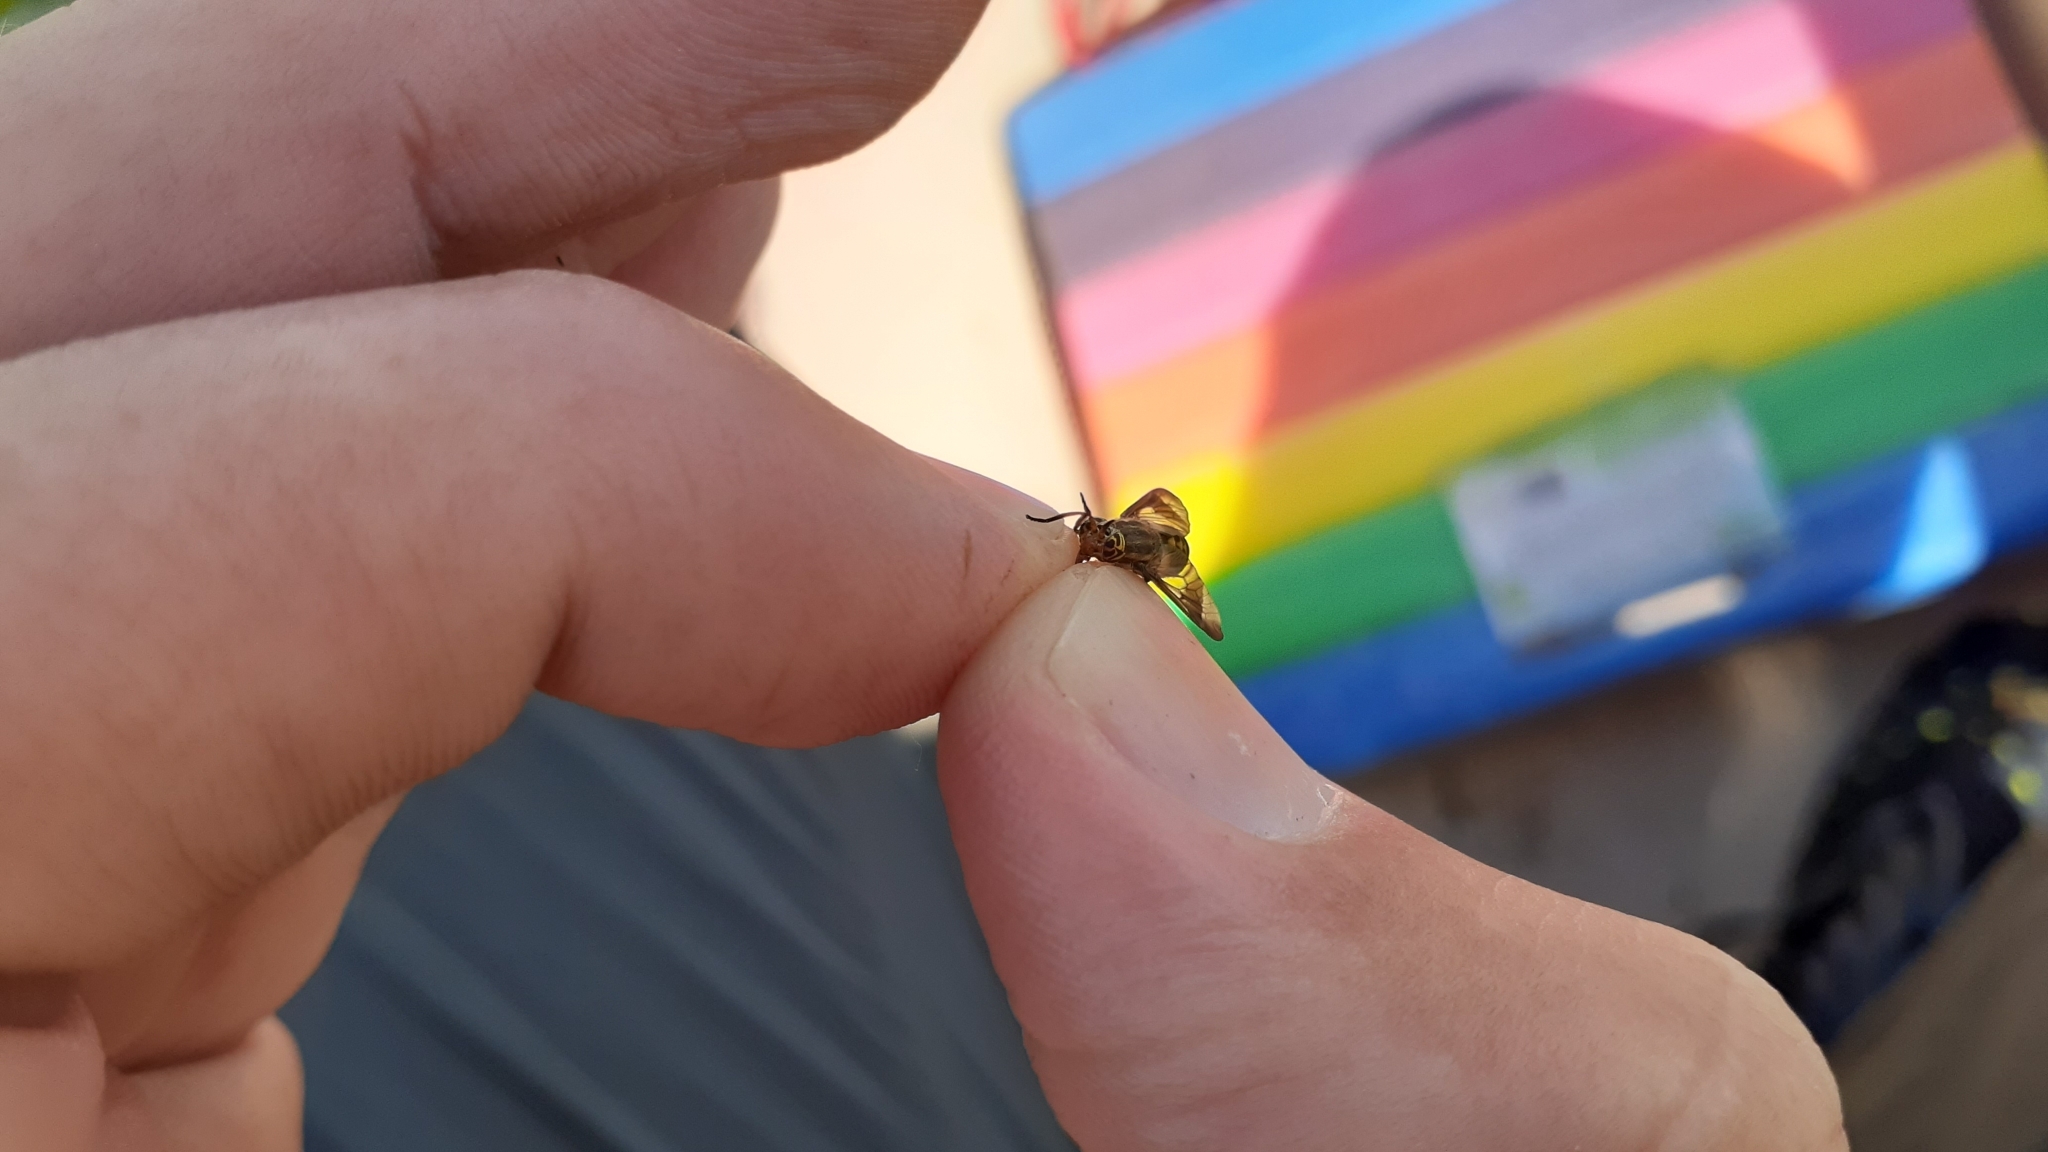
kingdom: Animalia
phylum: Arthropoda
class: Insecta
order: Diptera
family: Tabanidae
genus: Chrysops
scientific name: Chrysops montanus
